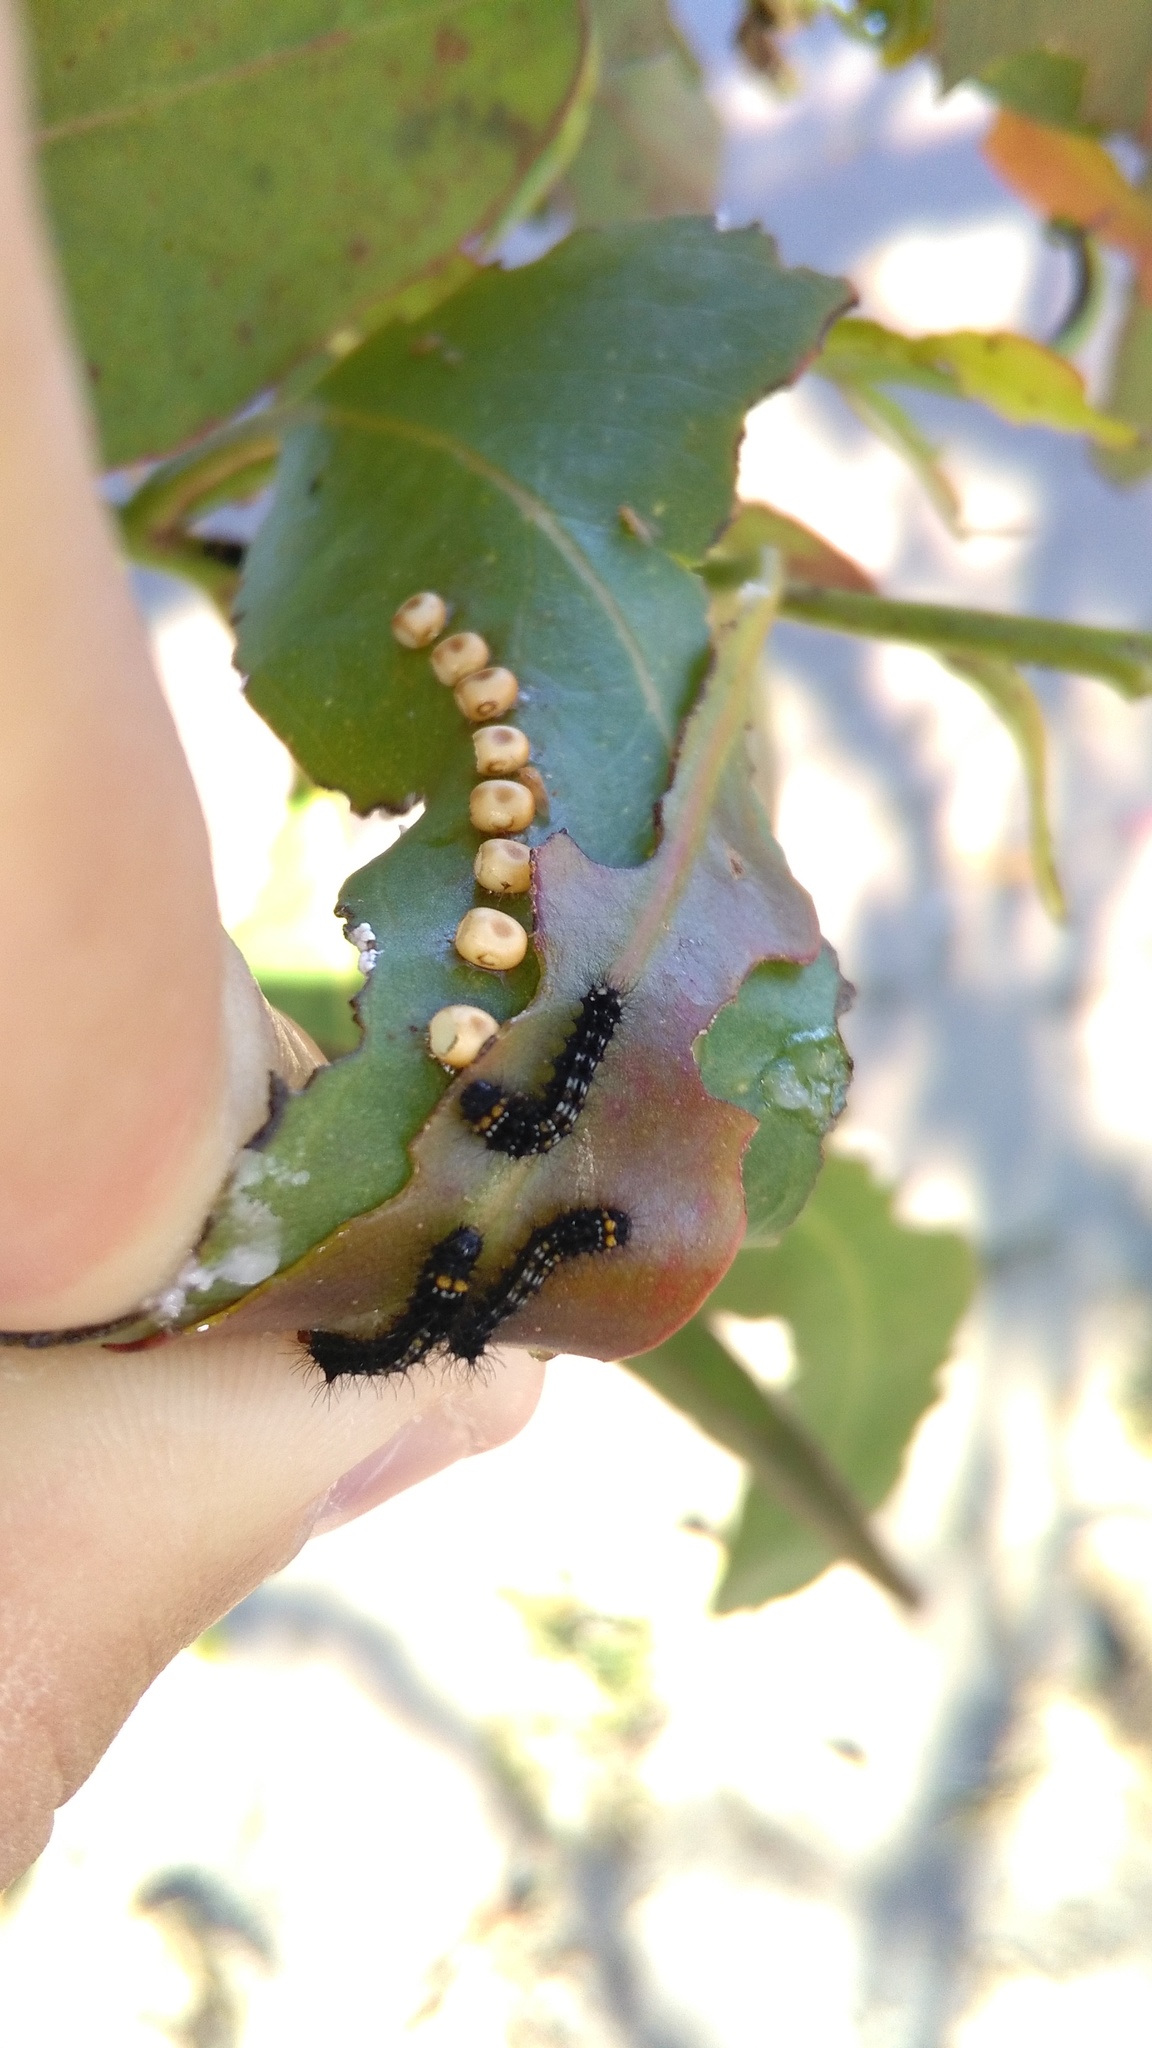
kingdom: Animalia
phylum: Arthropoda
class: Insecta
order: Lepidoptera
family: Saturniidae
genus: Opodiphthera
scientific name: Opodiphthera
